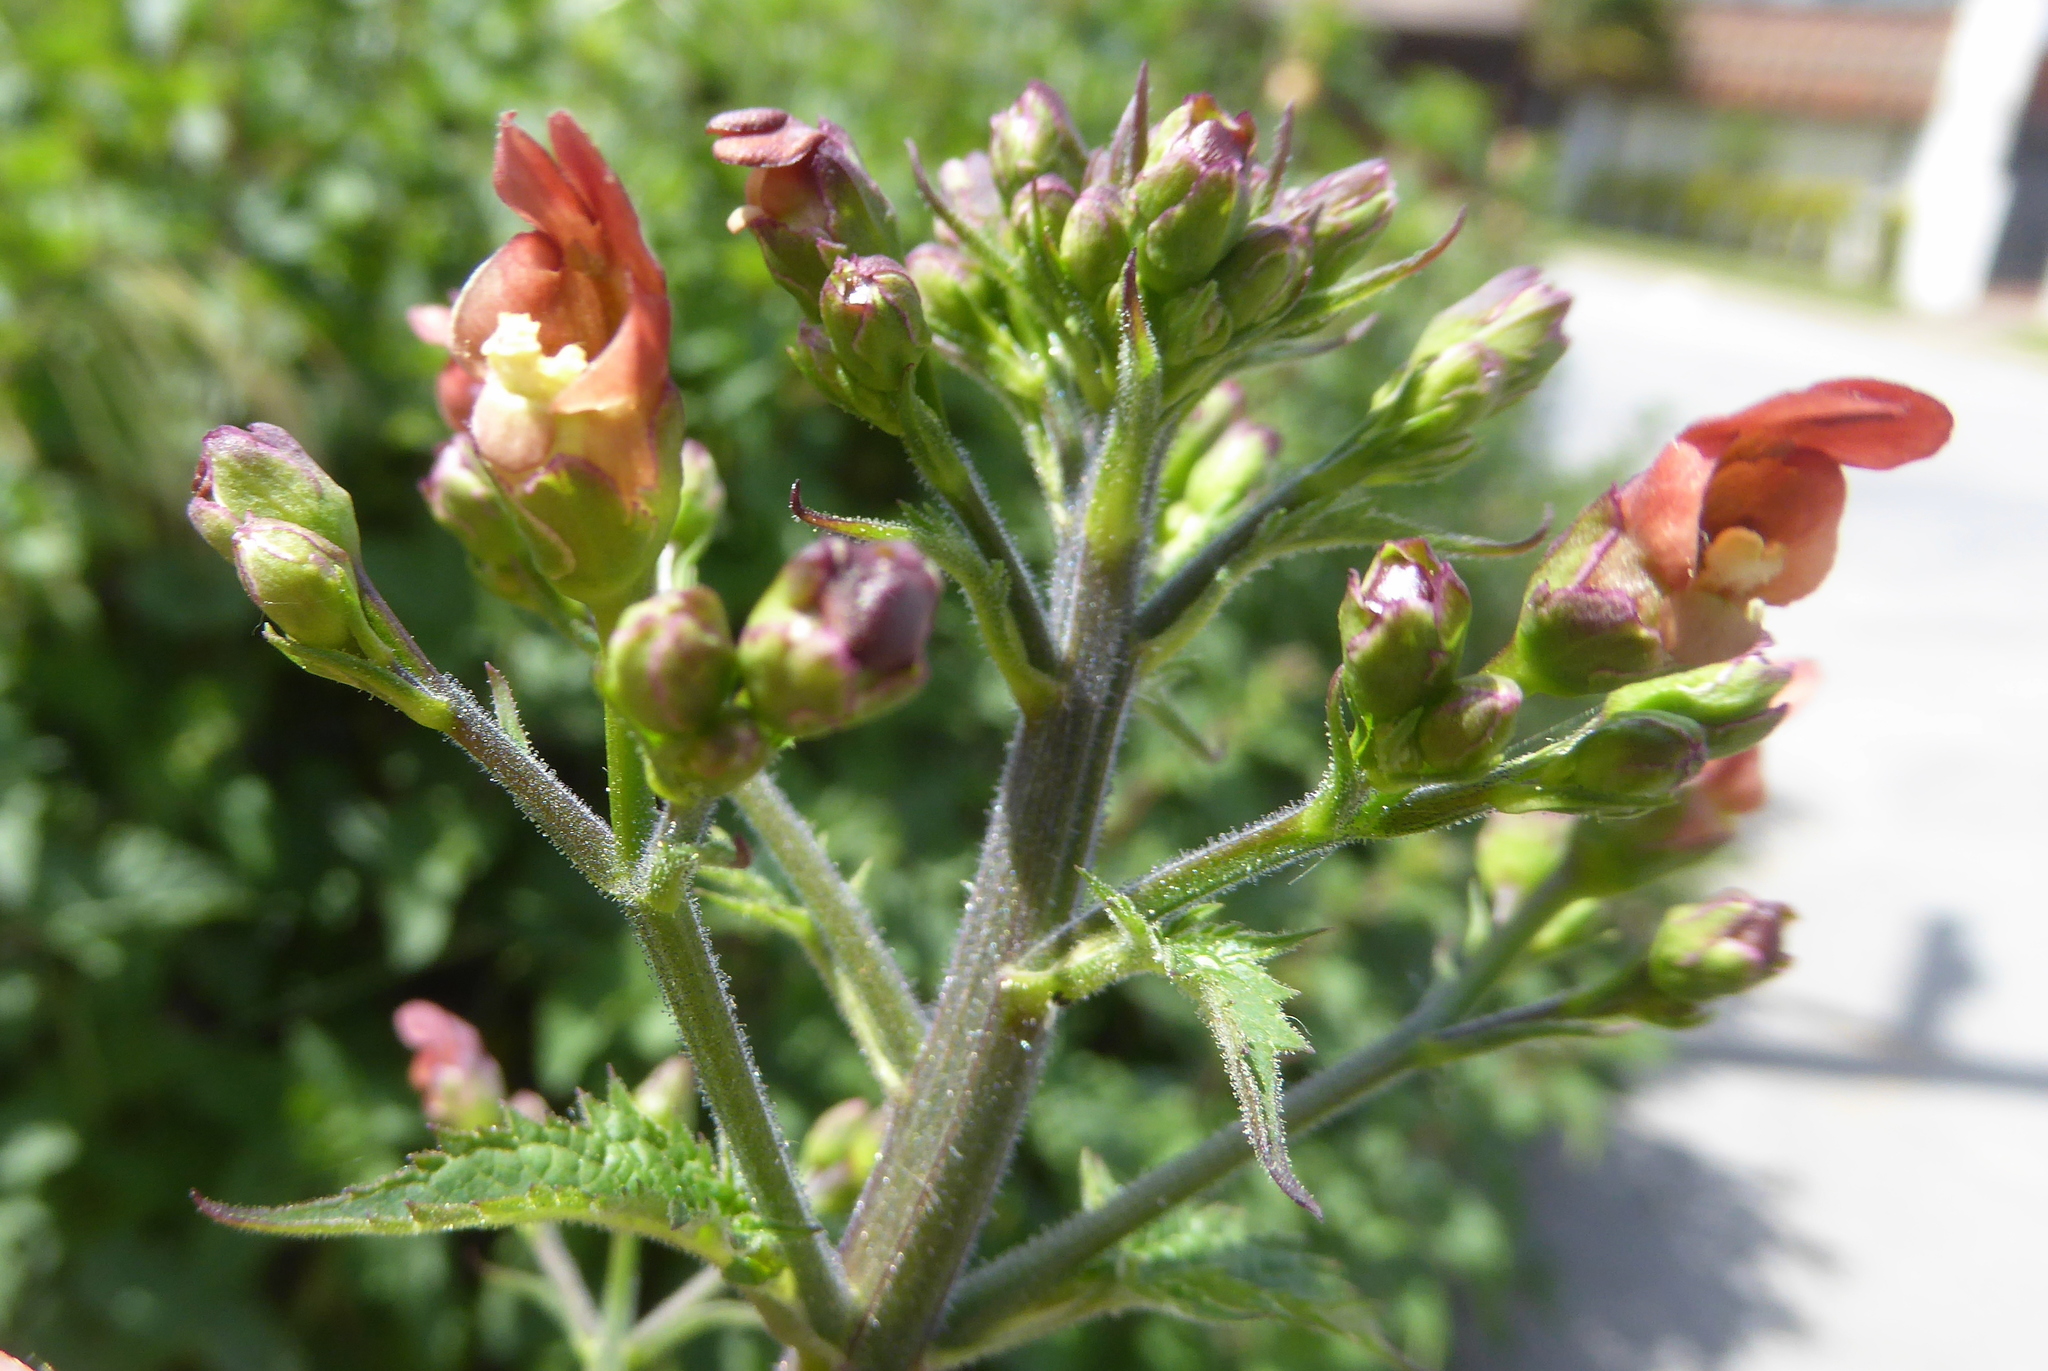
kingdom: Plantae
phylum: Tracheophyta
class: Magnoliopsida
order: Lamiales
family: Scrophulariaceae
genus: Scrophularia
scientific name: Scrophularia californica
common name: California figwort
